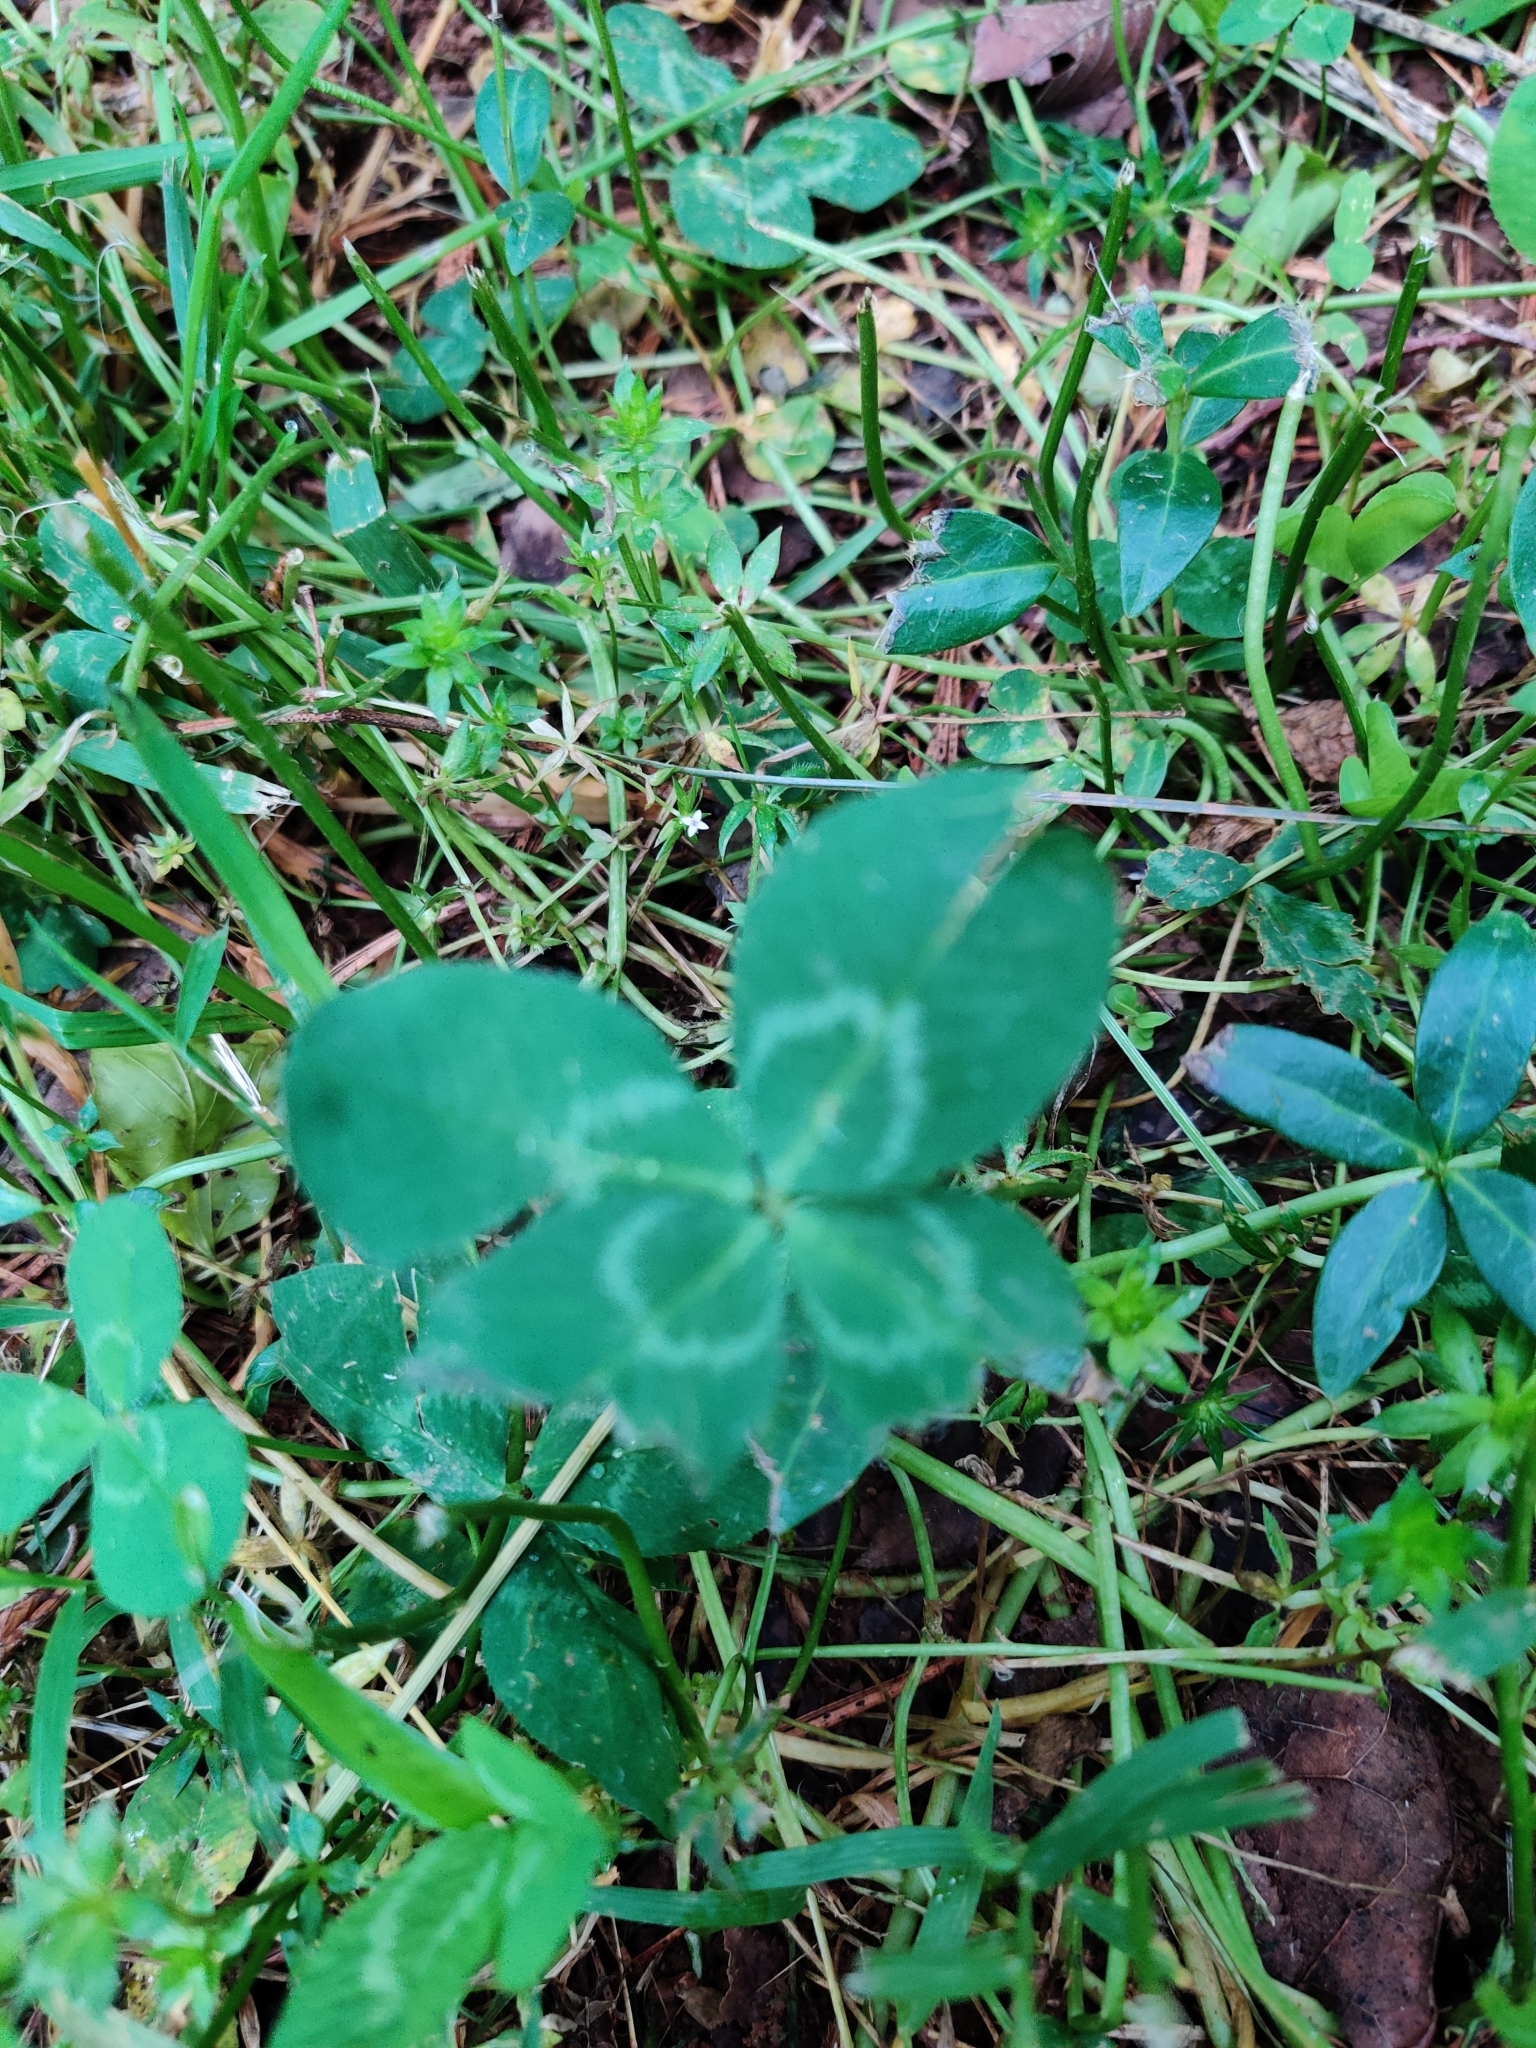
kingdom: Plantae
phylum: Tracheophyta
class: Magnoliopsida
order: Fabales
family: Fabaceae
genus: Trifolium
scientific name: Trifolium repens
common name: White clover
